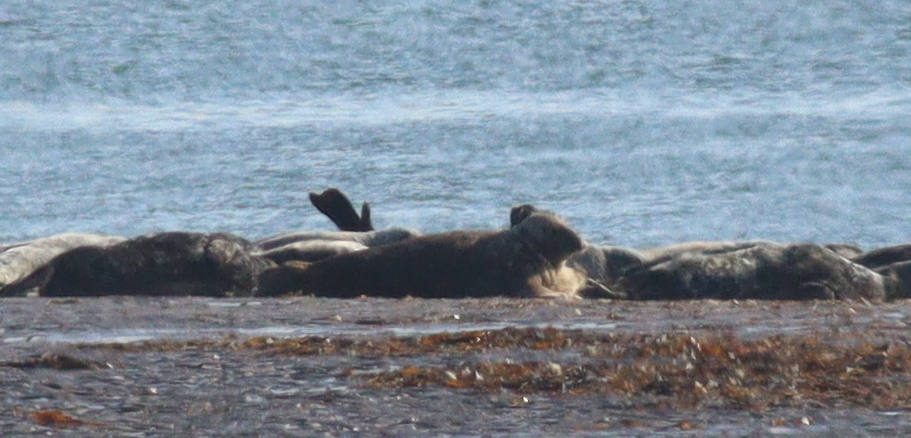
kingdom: Animalia
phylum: Chordata
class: Mammalia
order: Carnivora
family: Phocidae
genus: Halichoerus
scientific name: Halichoerus grypus
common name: Grey seal
